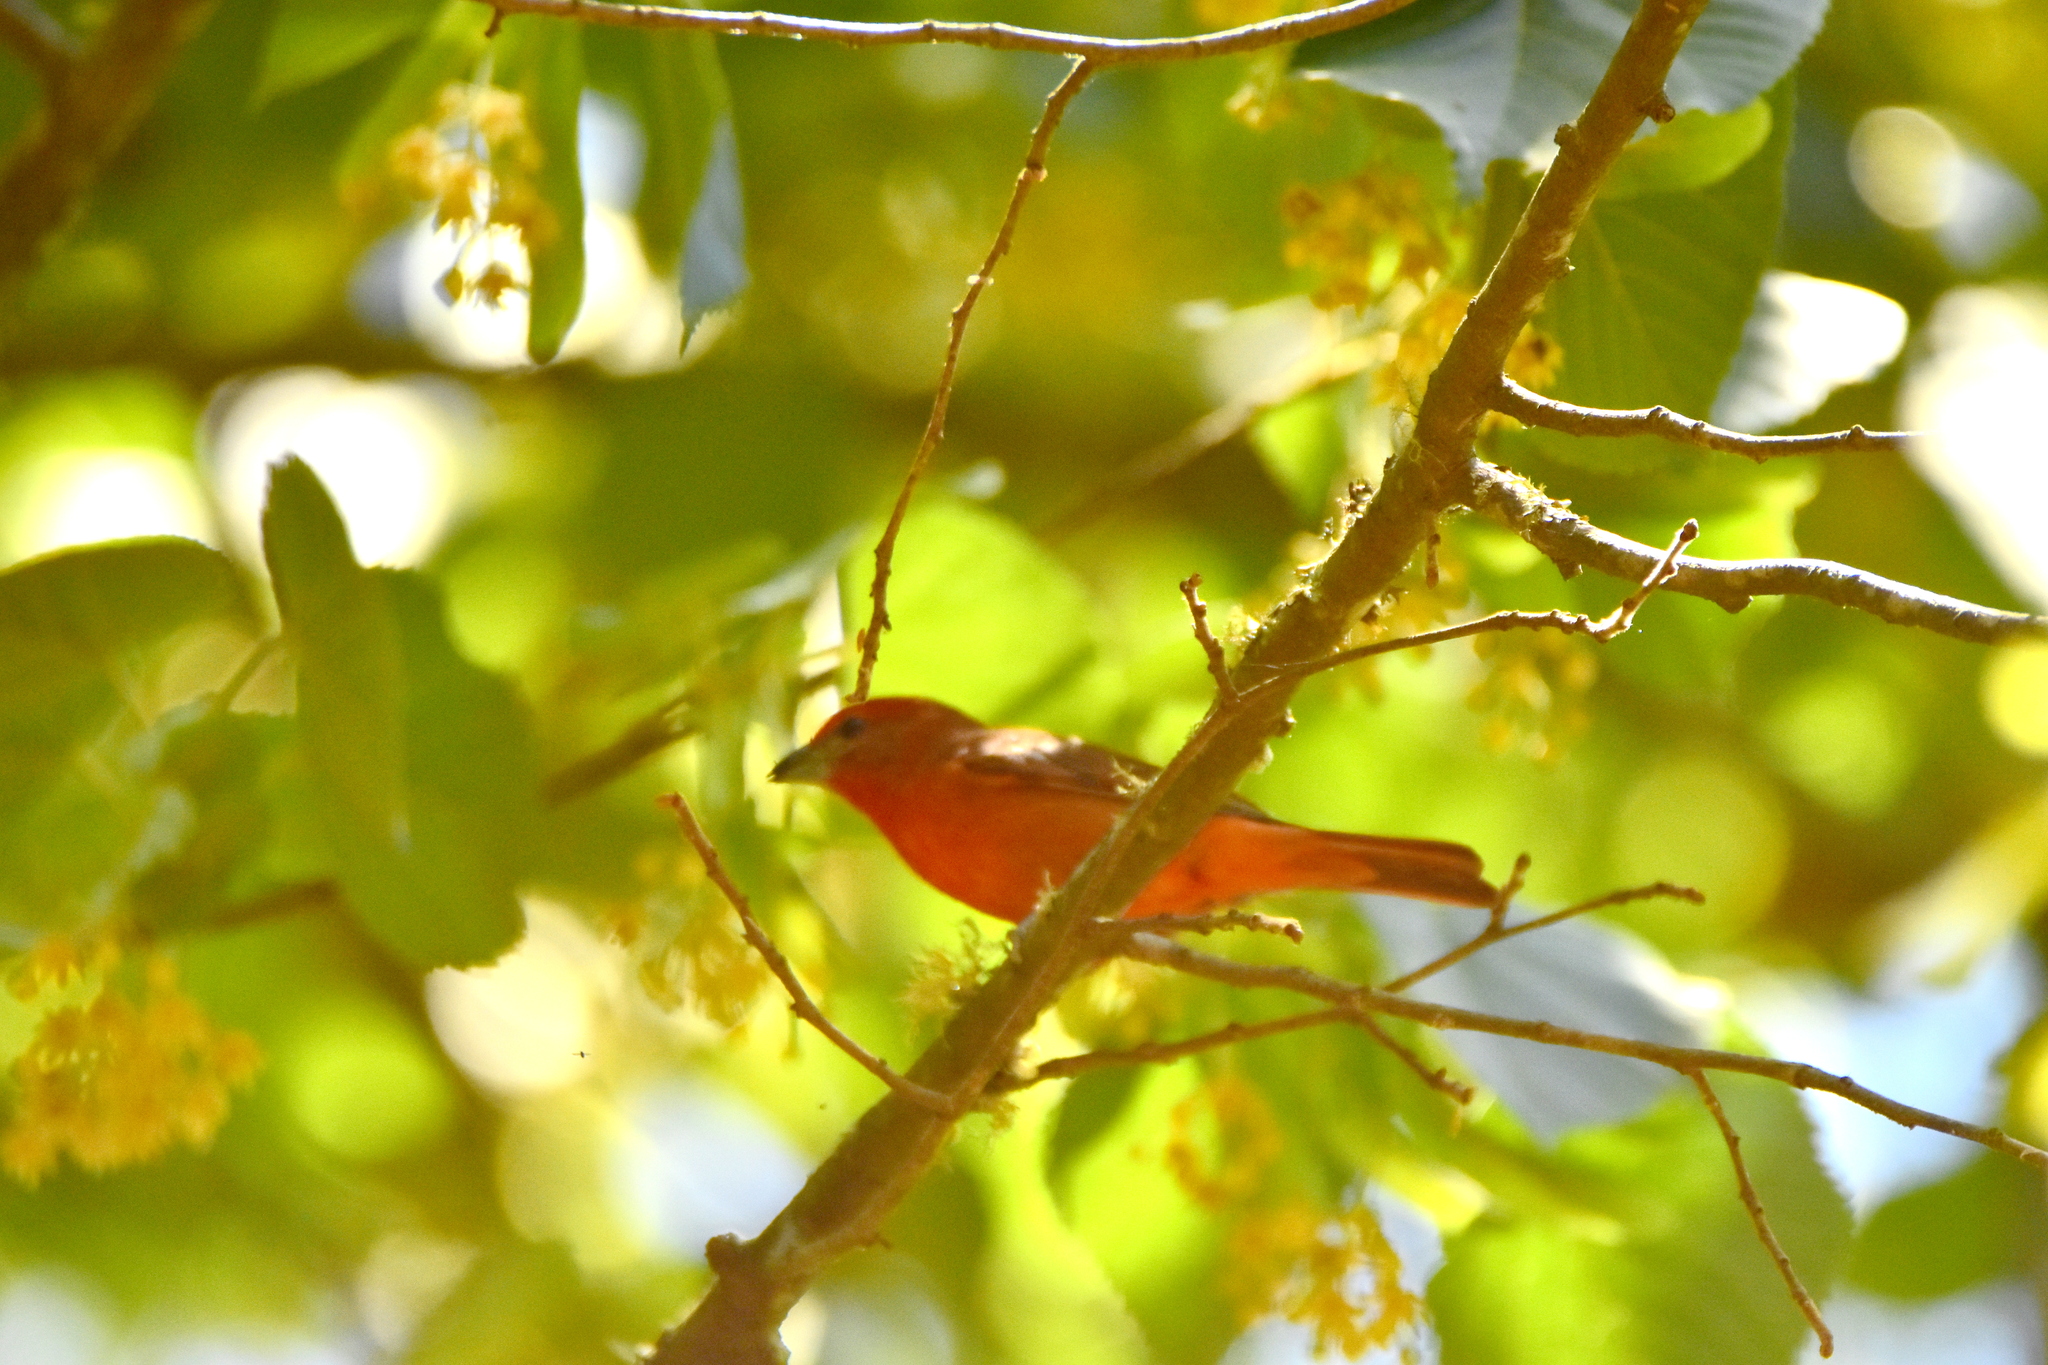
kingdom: Animalia
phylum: Chordata
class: Aves
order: Passeriformes
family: Cardinalidae
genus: Piranga
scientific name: Piranga flava
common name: Red tanager
